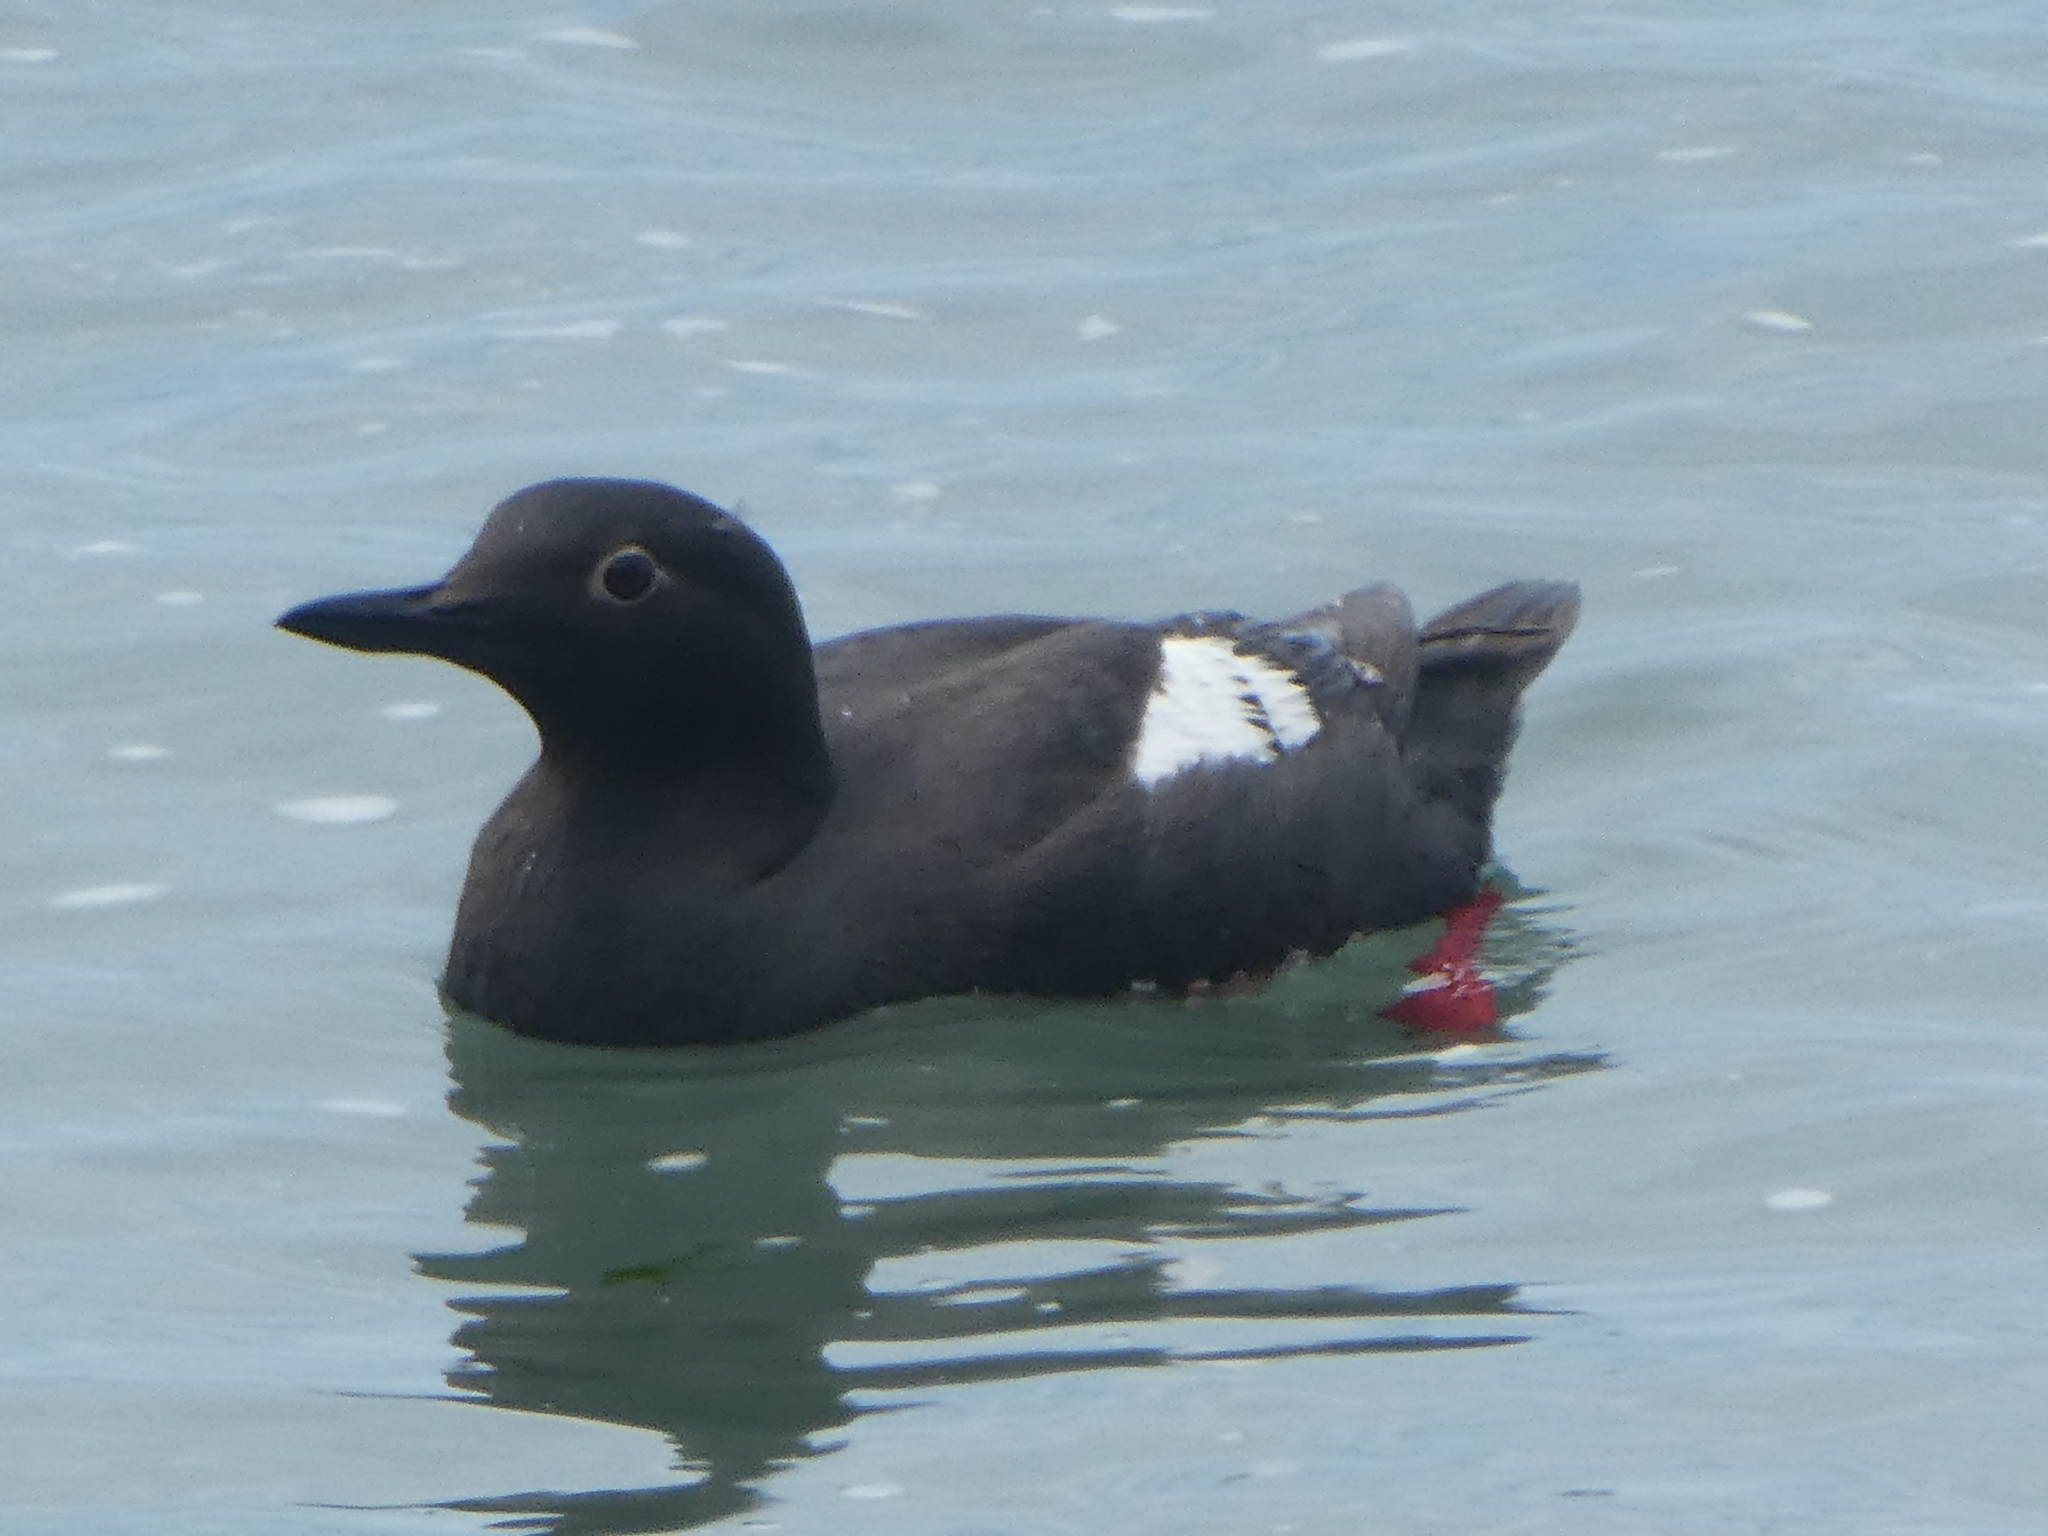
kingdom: Animalia
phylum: Chordata
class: Aves
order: Charadriiformes
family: Alcidae
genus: Cepphus
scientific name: Cepphus columba
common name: Pigeon guillemot
